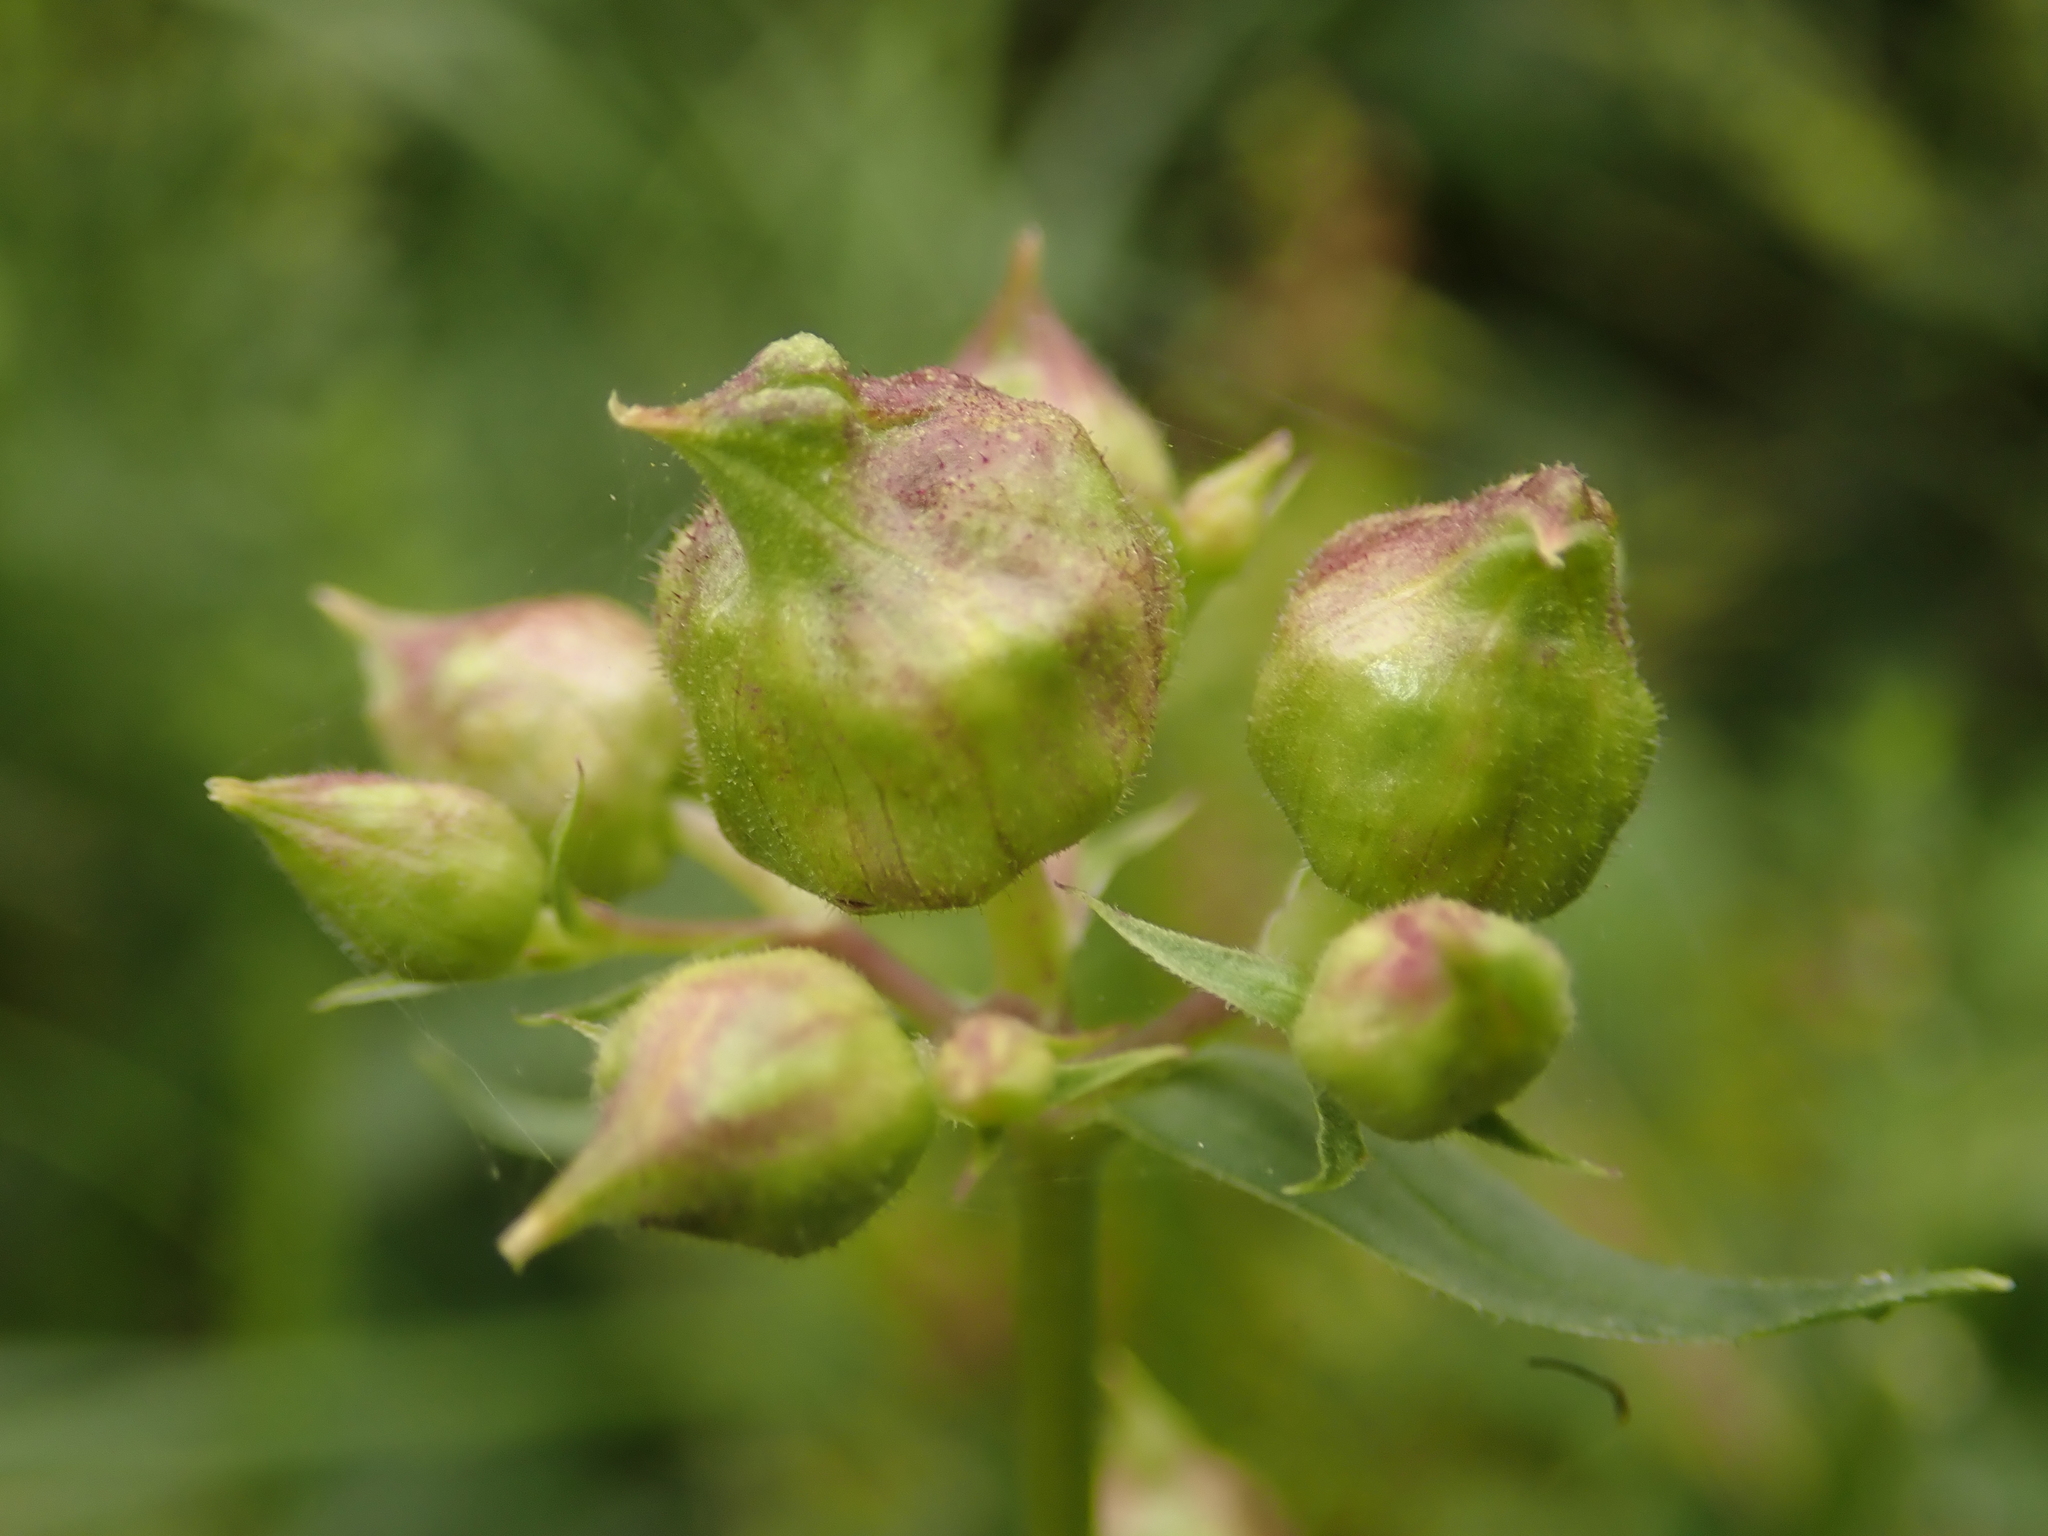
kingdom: Plantae
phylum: Tracheophyta
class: Magnoliopsida
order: Caryophyllales
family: Caryophyllaceae
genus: Saponaria
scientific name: Saponaria officinalis
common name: Soapwort
